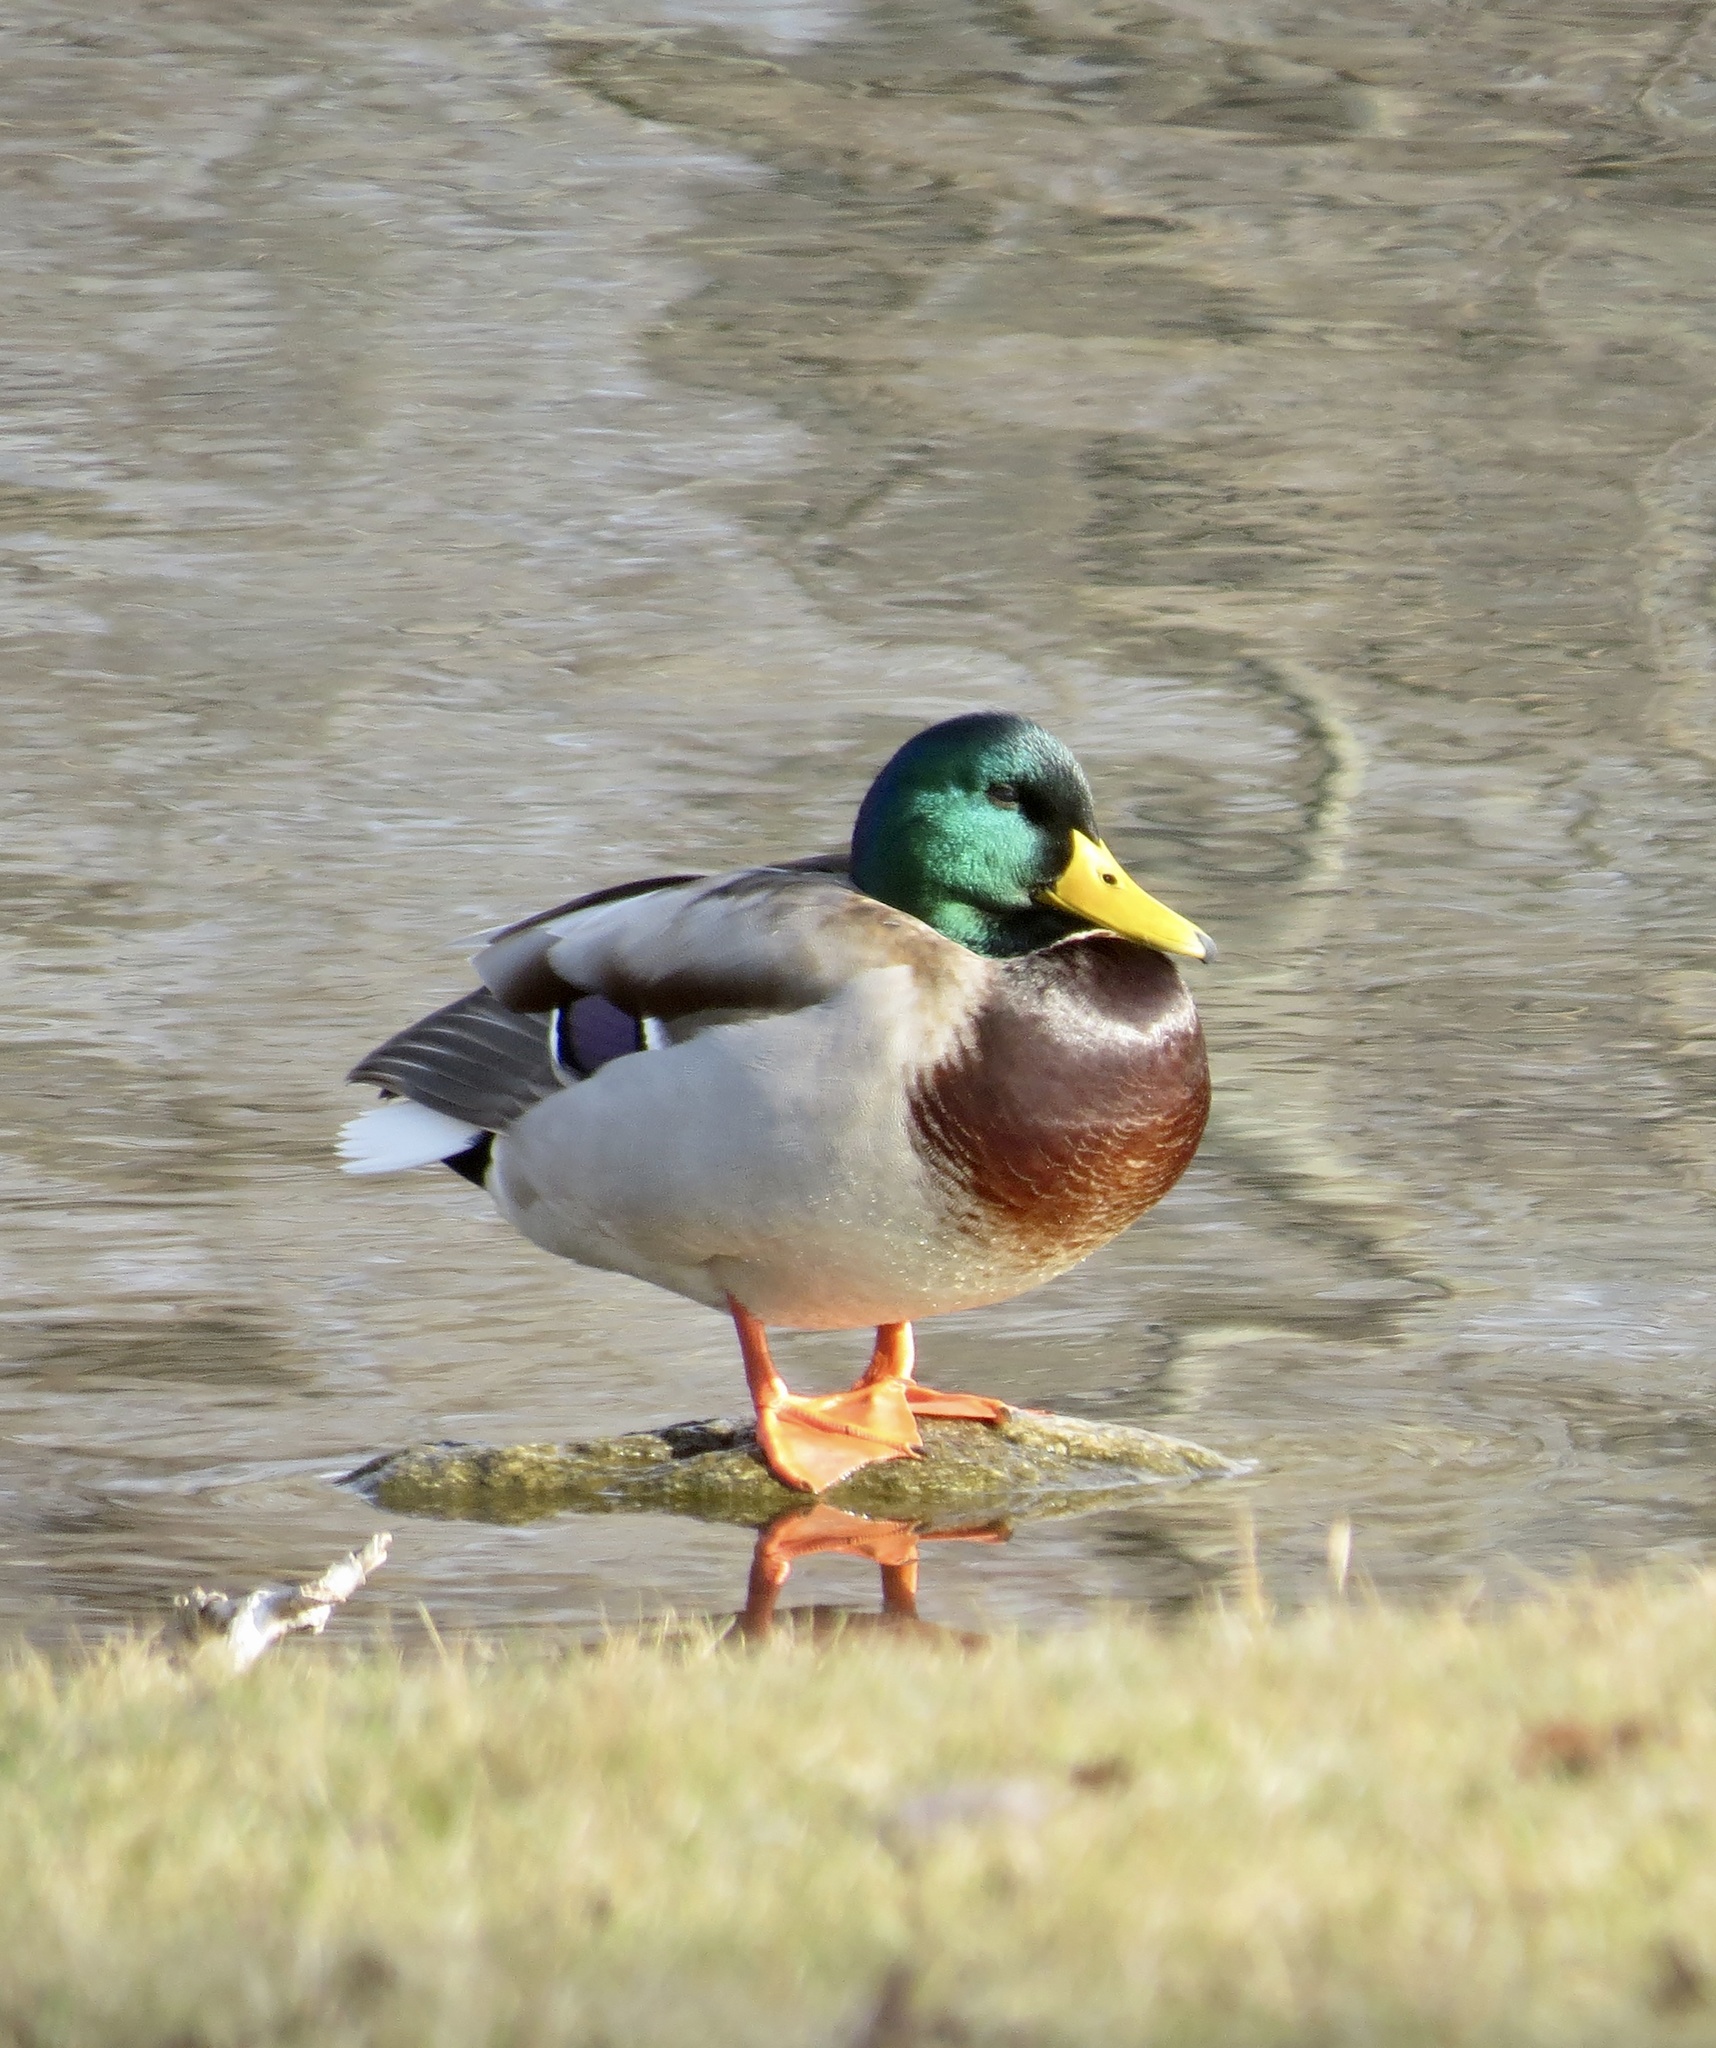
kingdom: Animalia
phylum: Chordata
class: Aves
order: Anseriformes
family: Anatidae
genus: Anas
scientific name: Anas platyrhynchos
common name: Mallard
